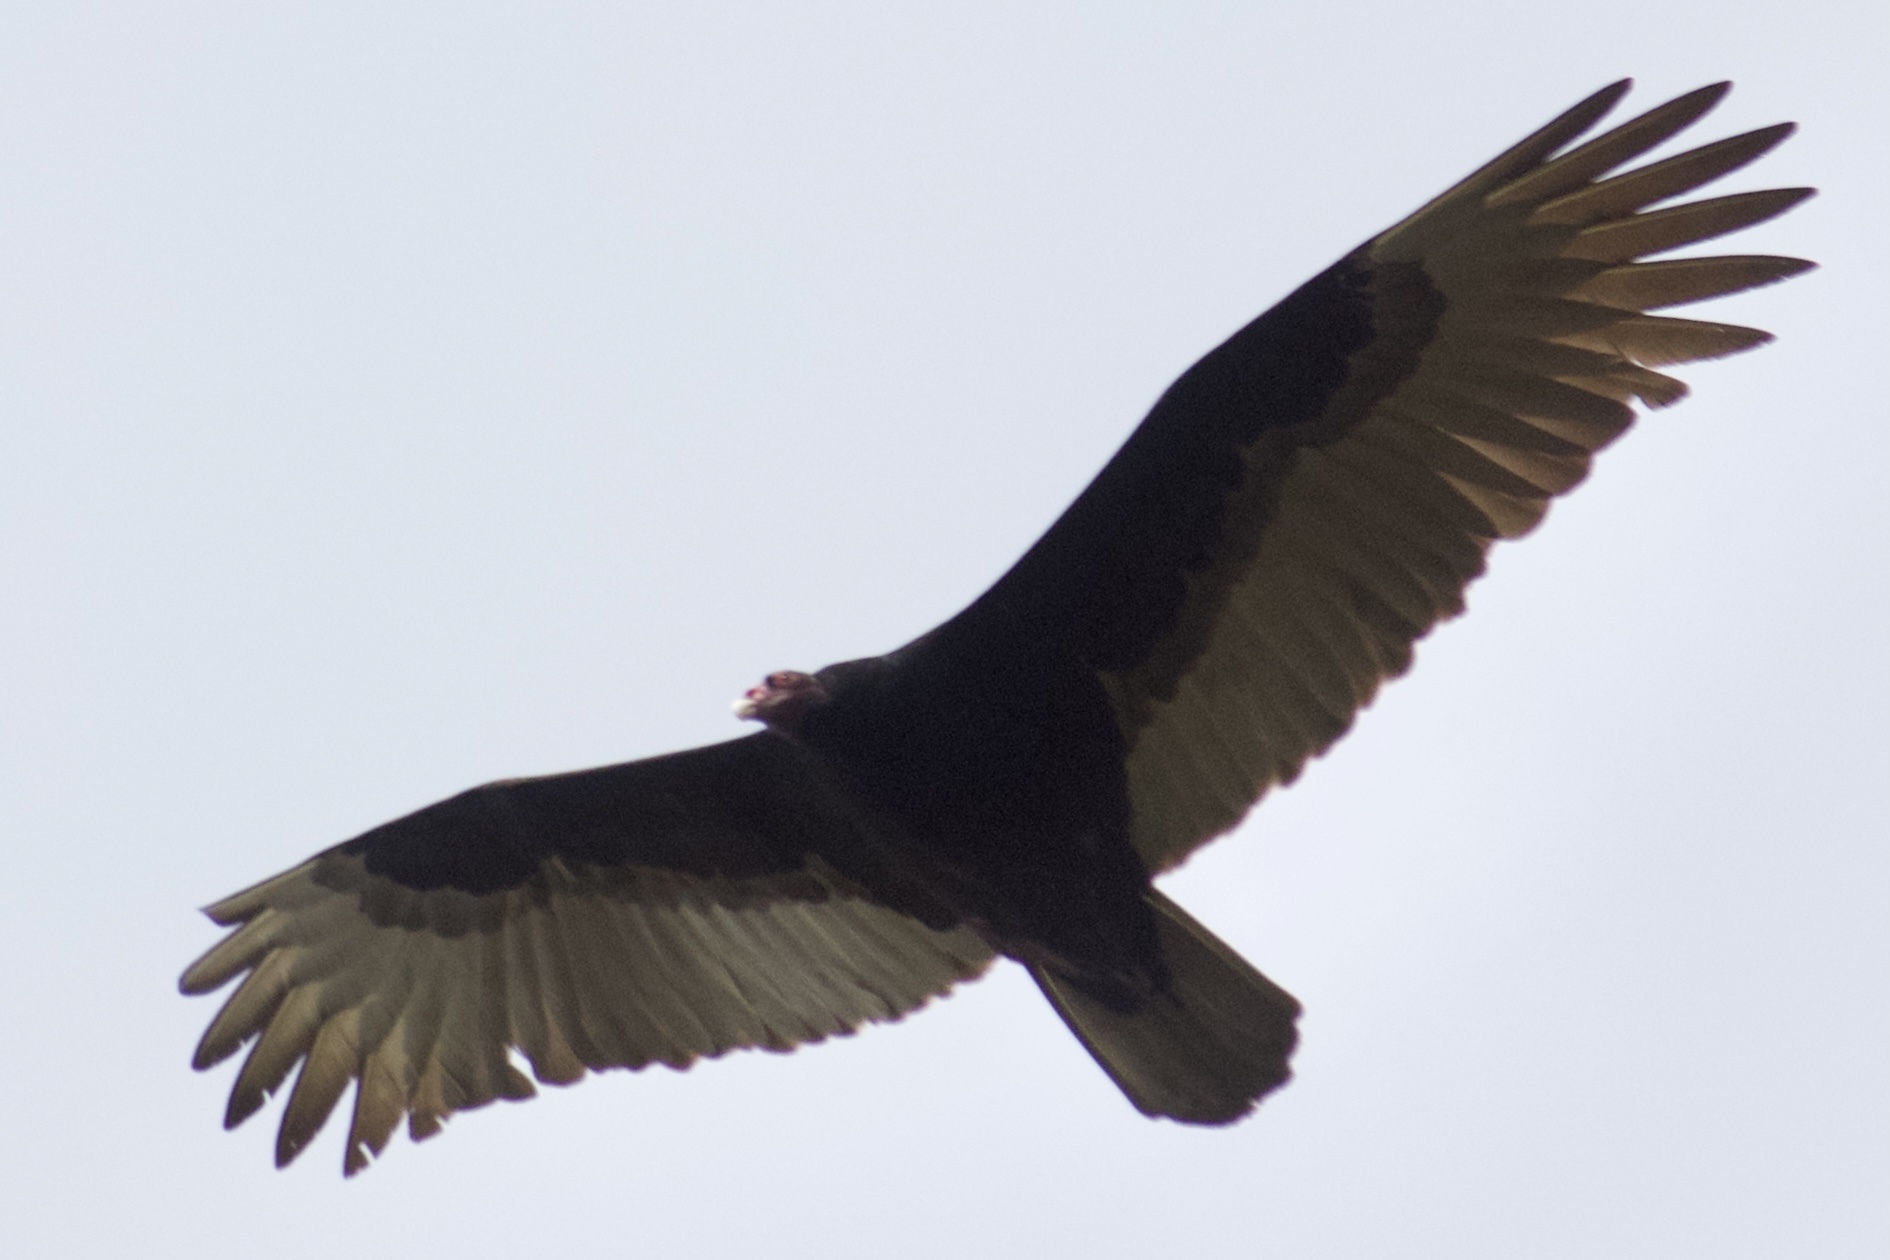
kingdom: Animalia
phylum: Chordata
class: Aves
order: Accipitriformes
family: Cathartidae
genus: Cathartes
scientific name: Cathartes aura
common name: Turkey vulture
